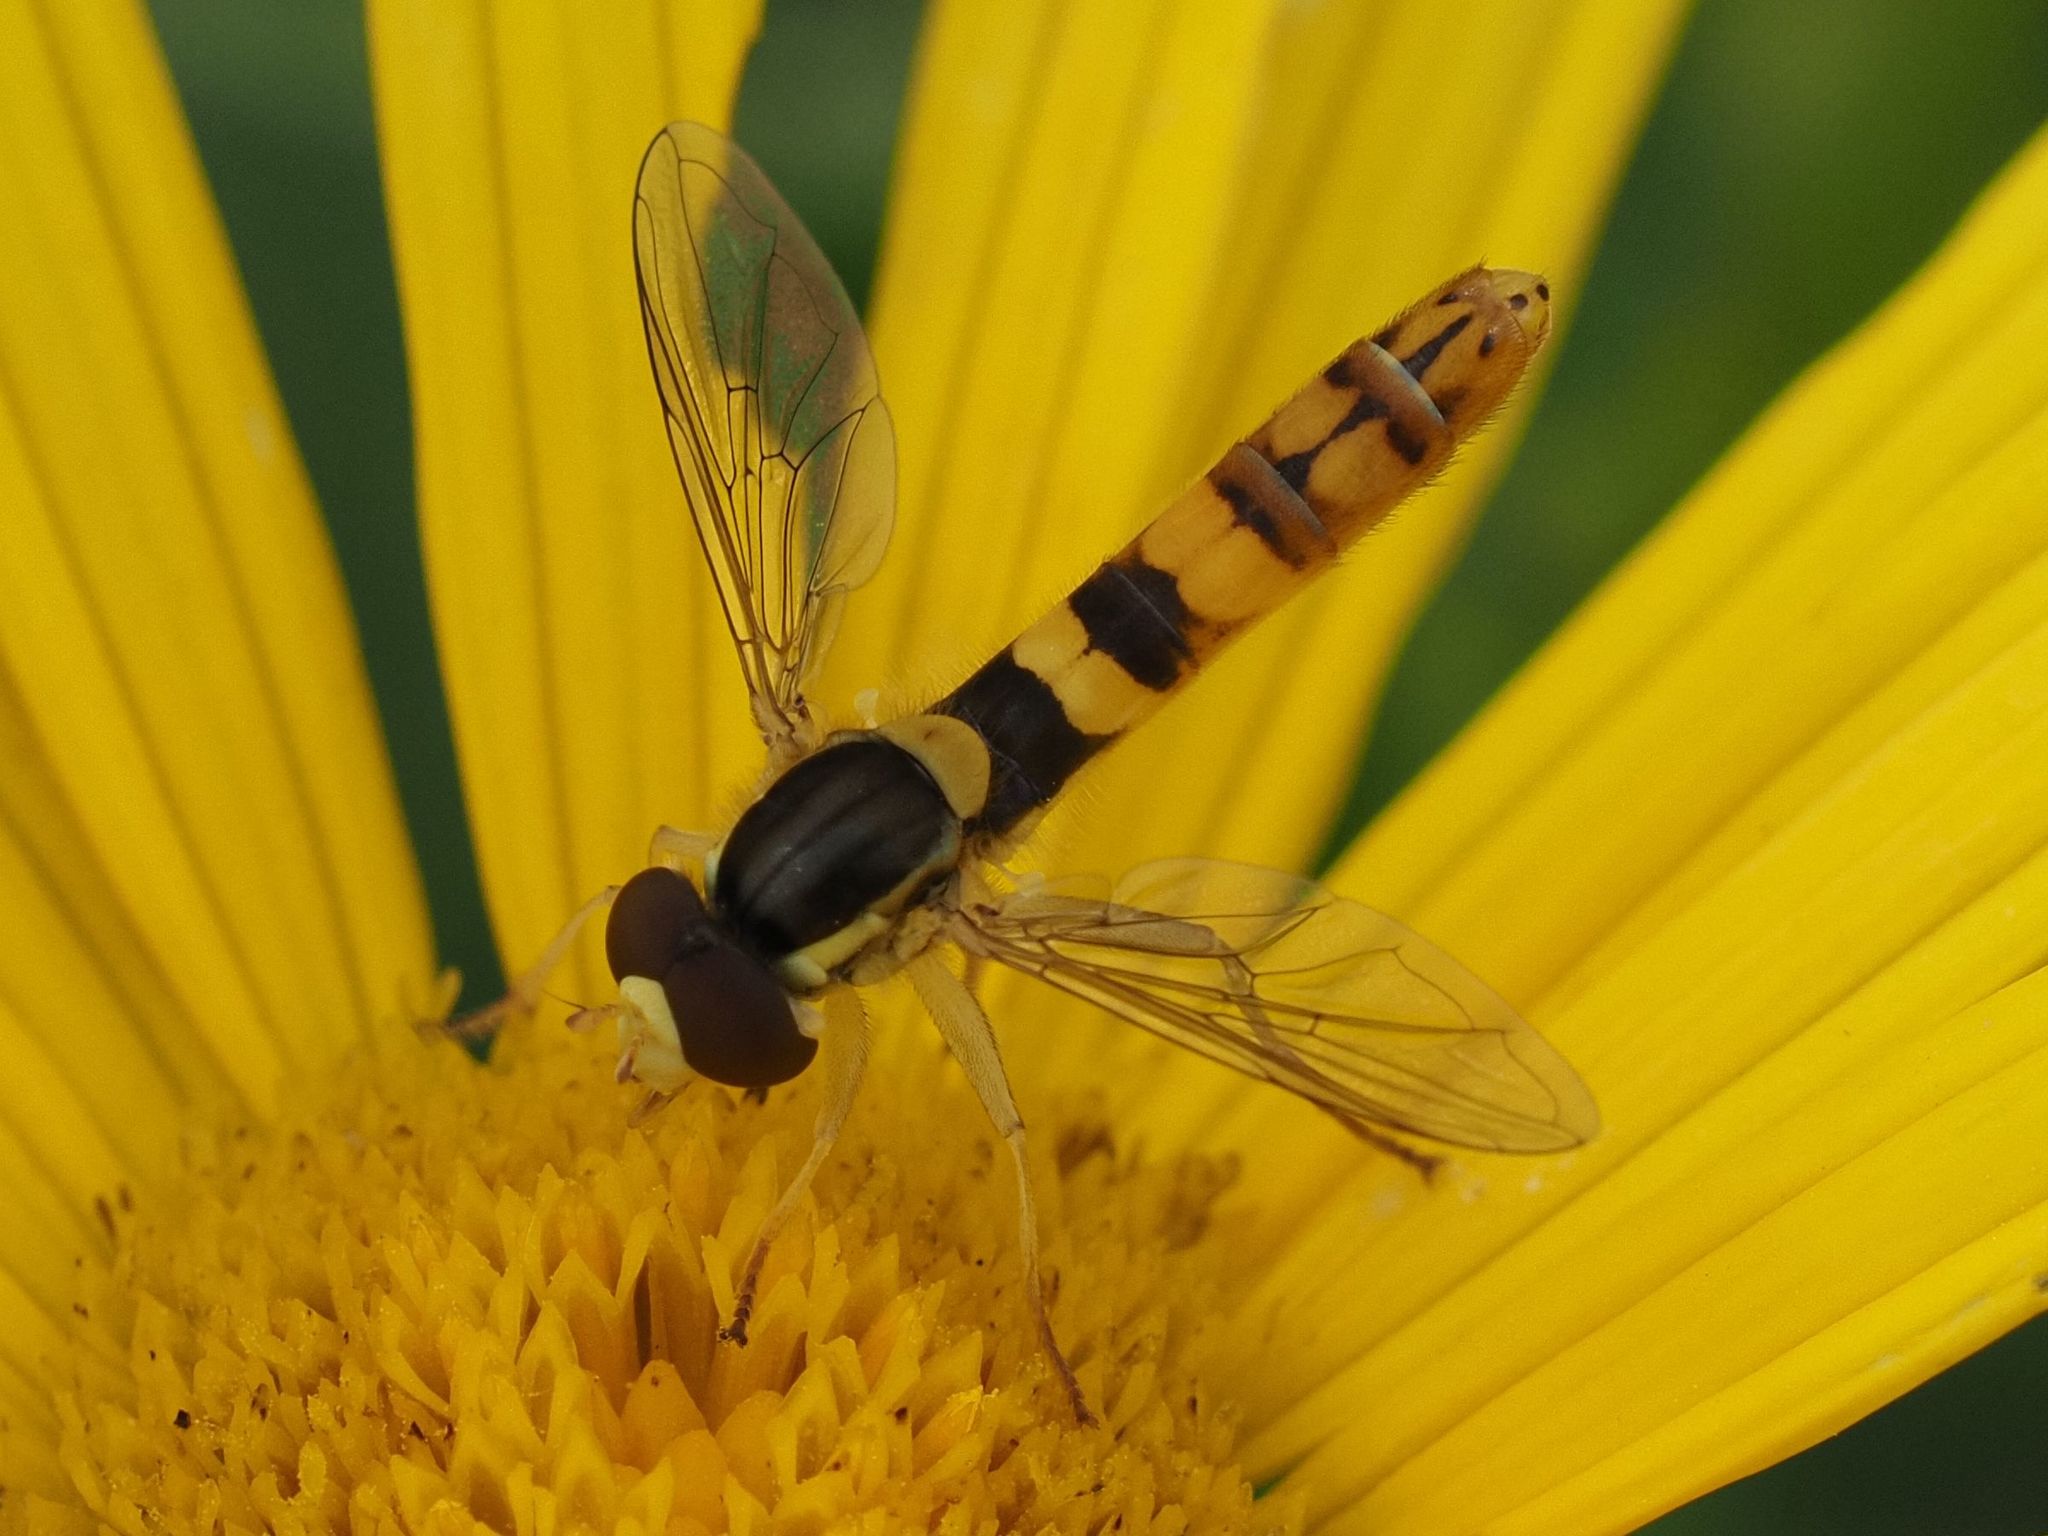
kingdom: Animalia
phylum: Arthropoda
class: Insecta
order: Diptera
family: Syrphidae
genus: Sphaerophoria
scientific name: Sphaerophoria scripta
